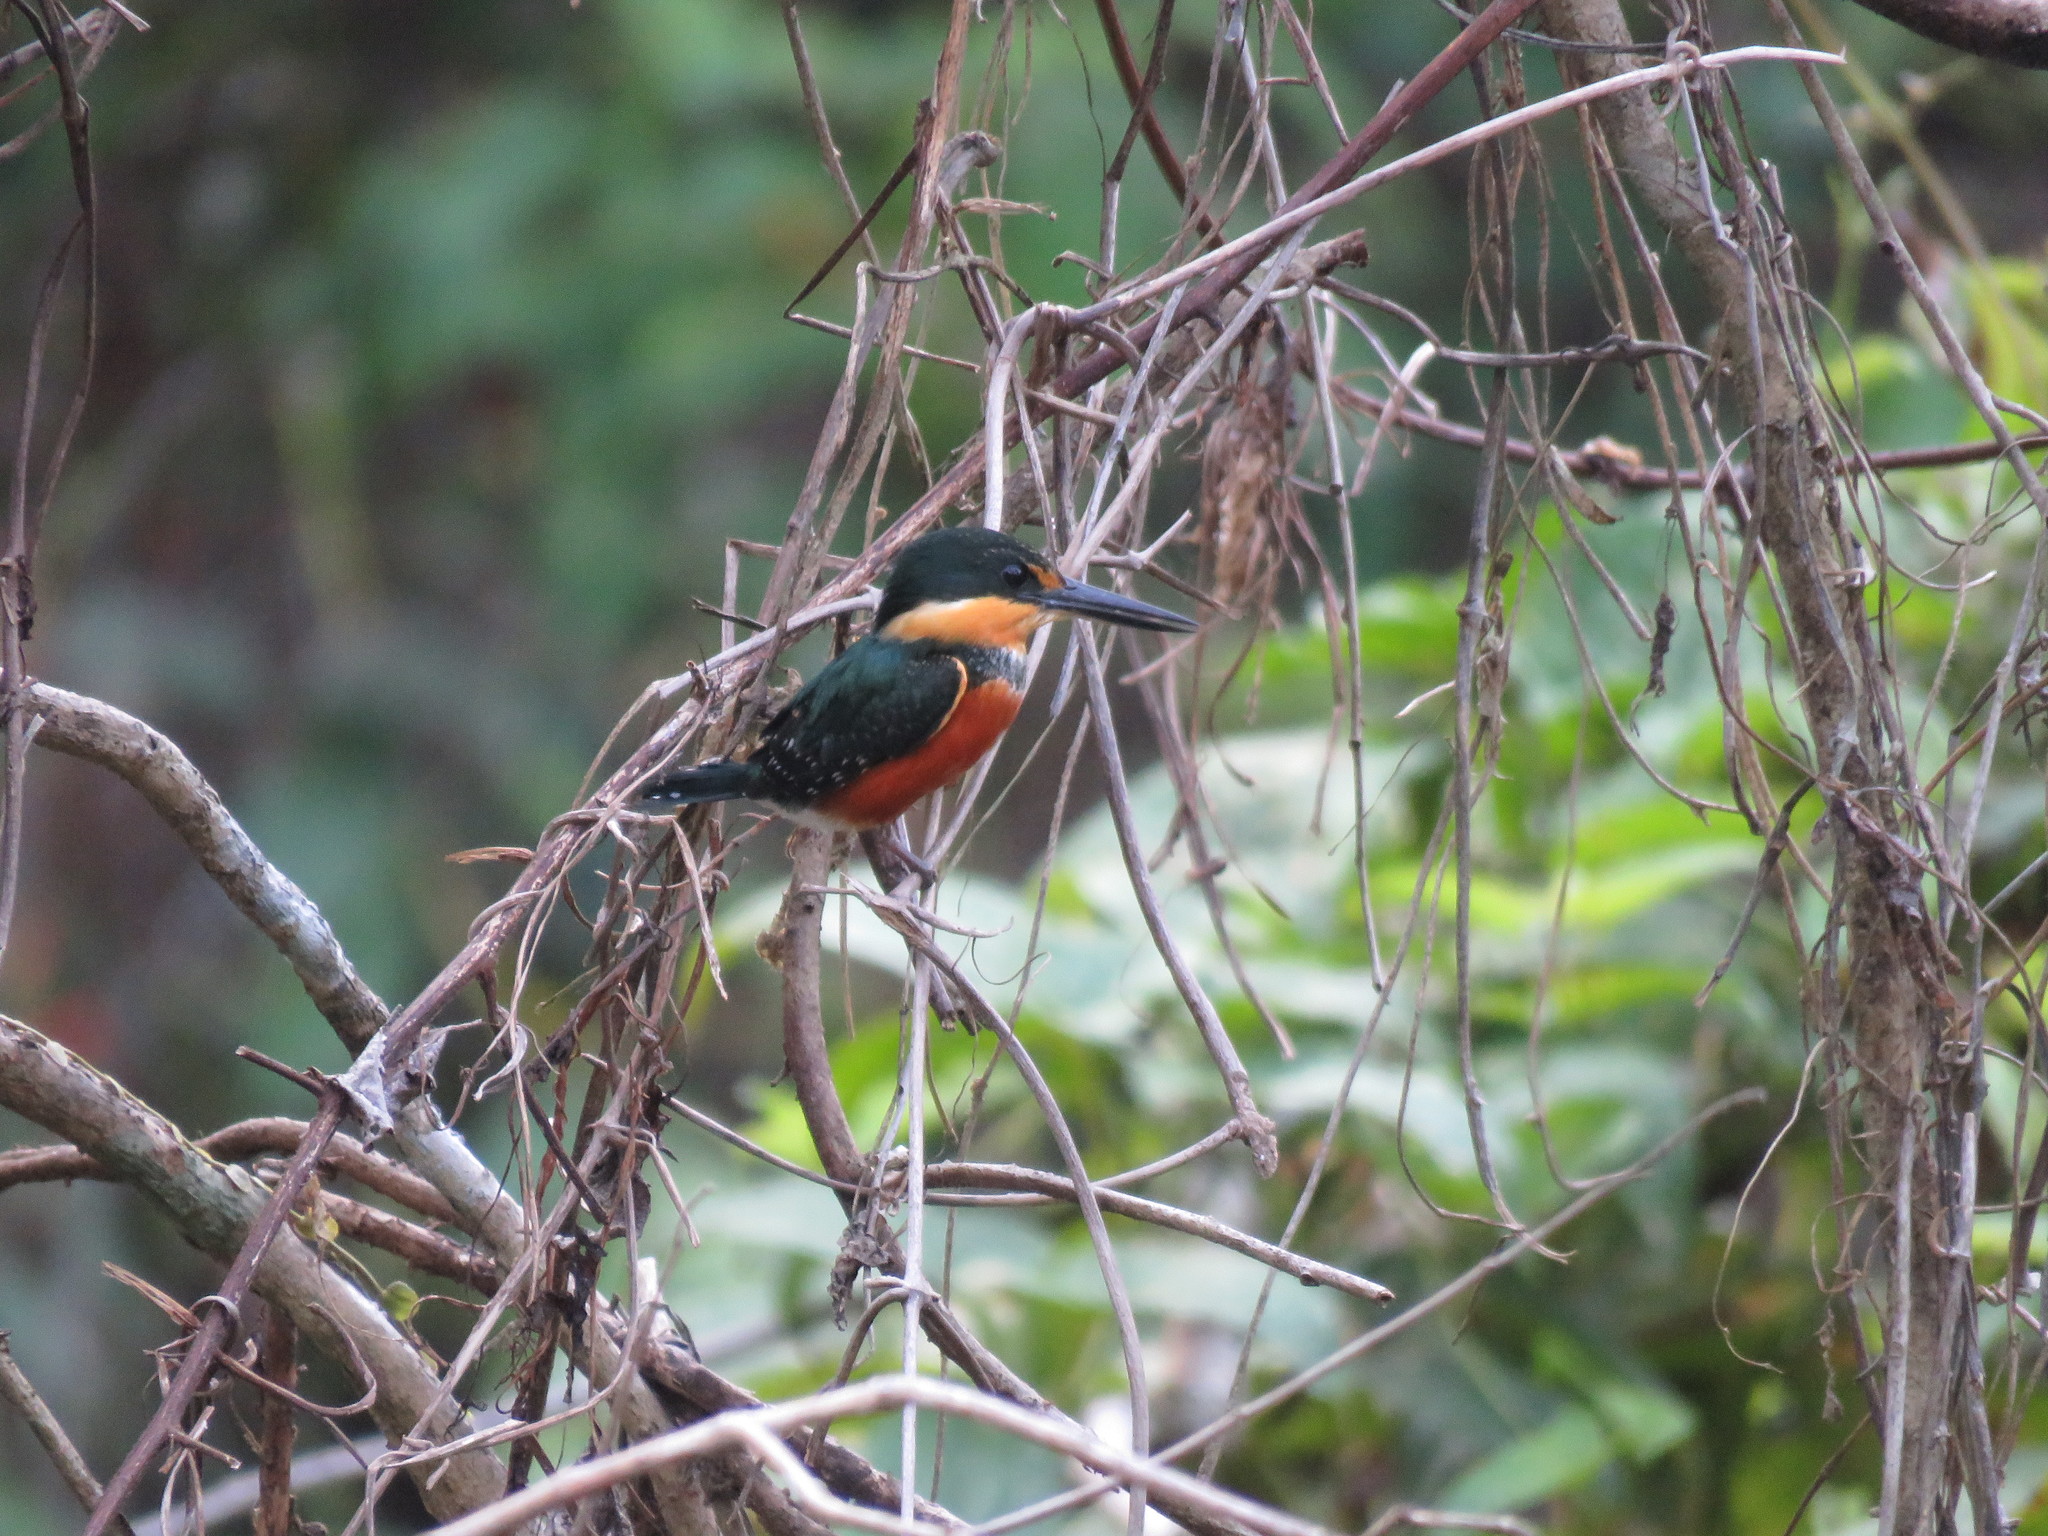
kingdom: Animalia
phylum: Chordata
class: Aves
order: Coraciiformes
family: Alcedinidae
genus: Chloroceryle
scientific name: Chloroceryle aenea
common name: American pygmy kingfisher
